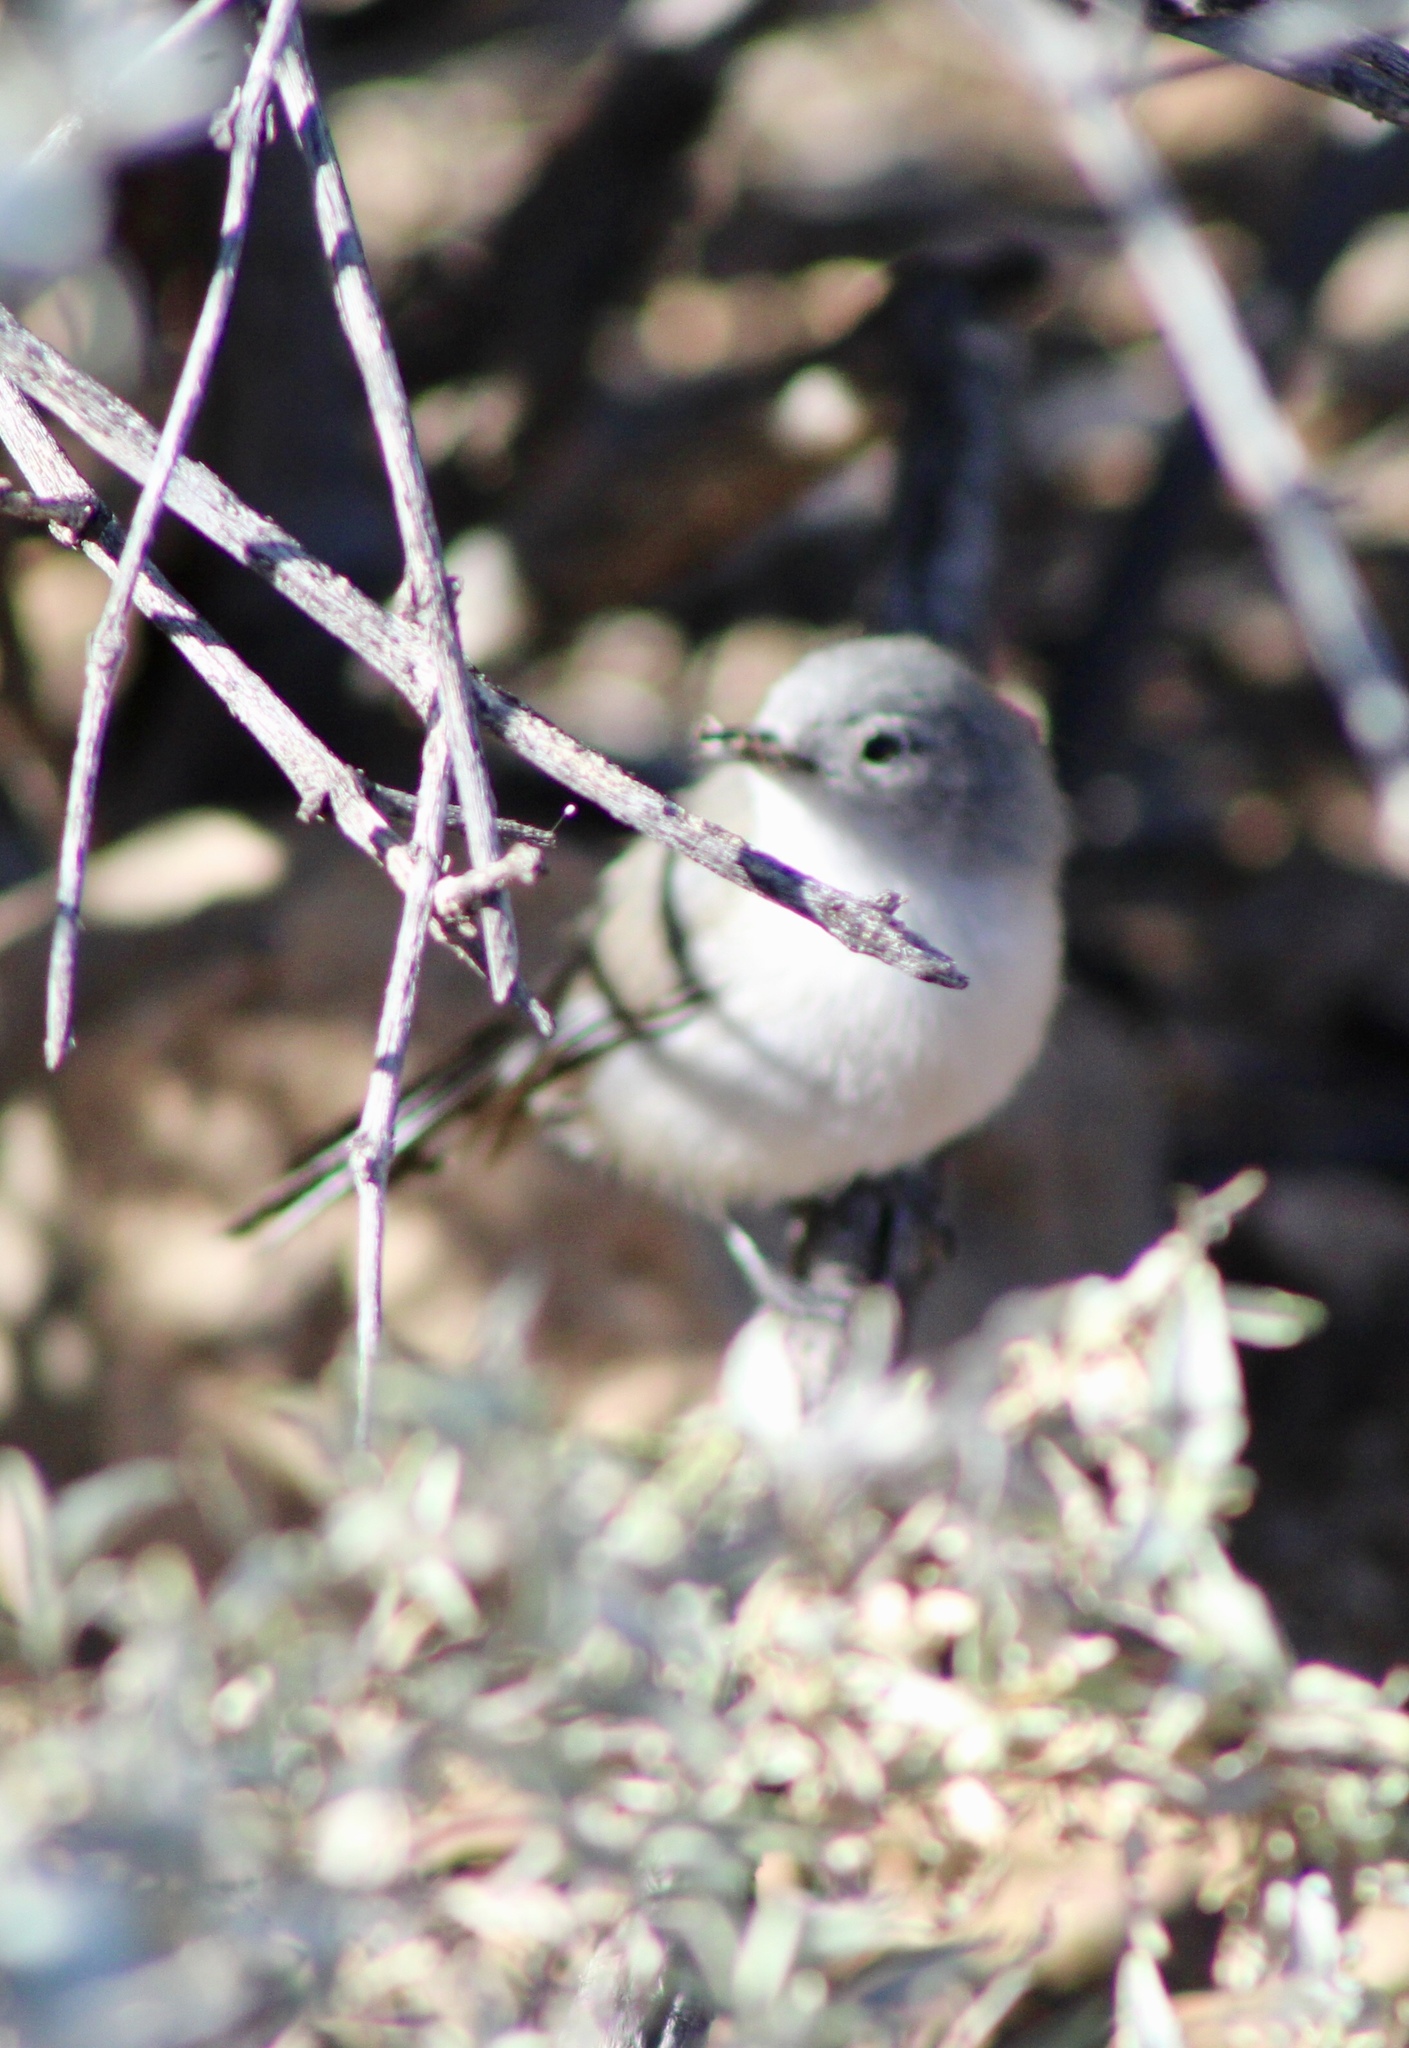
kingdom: Animalia
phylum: Chordata
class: Aves
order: Passeriformes
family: Polioptilidae
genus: Polioptila
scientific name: Polioptila melanura
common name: Black-tailed gnatcatcher
